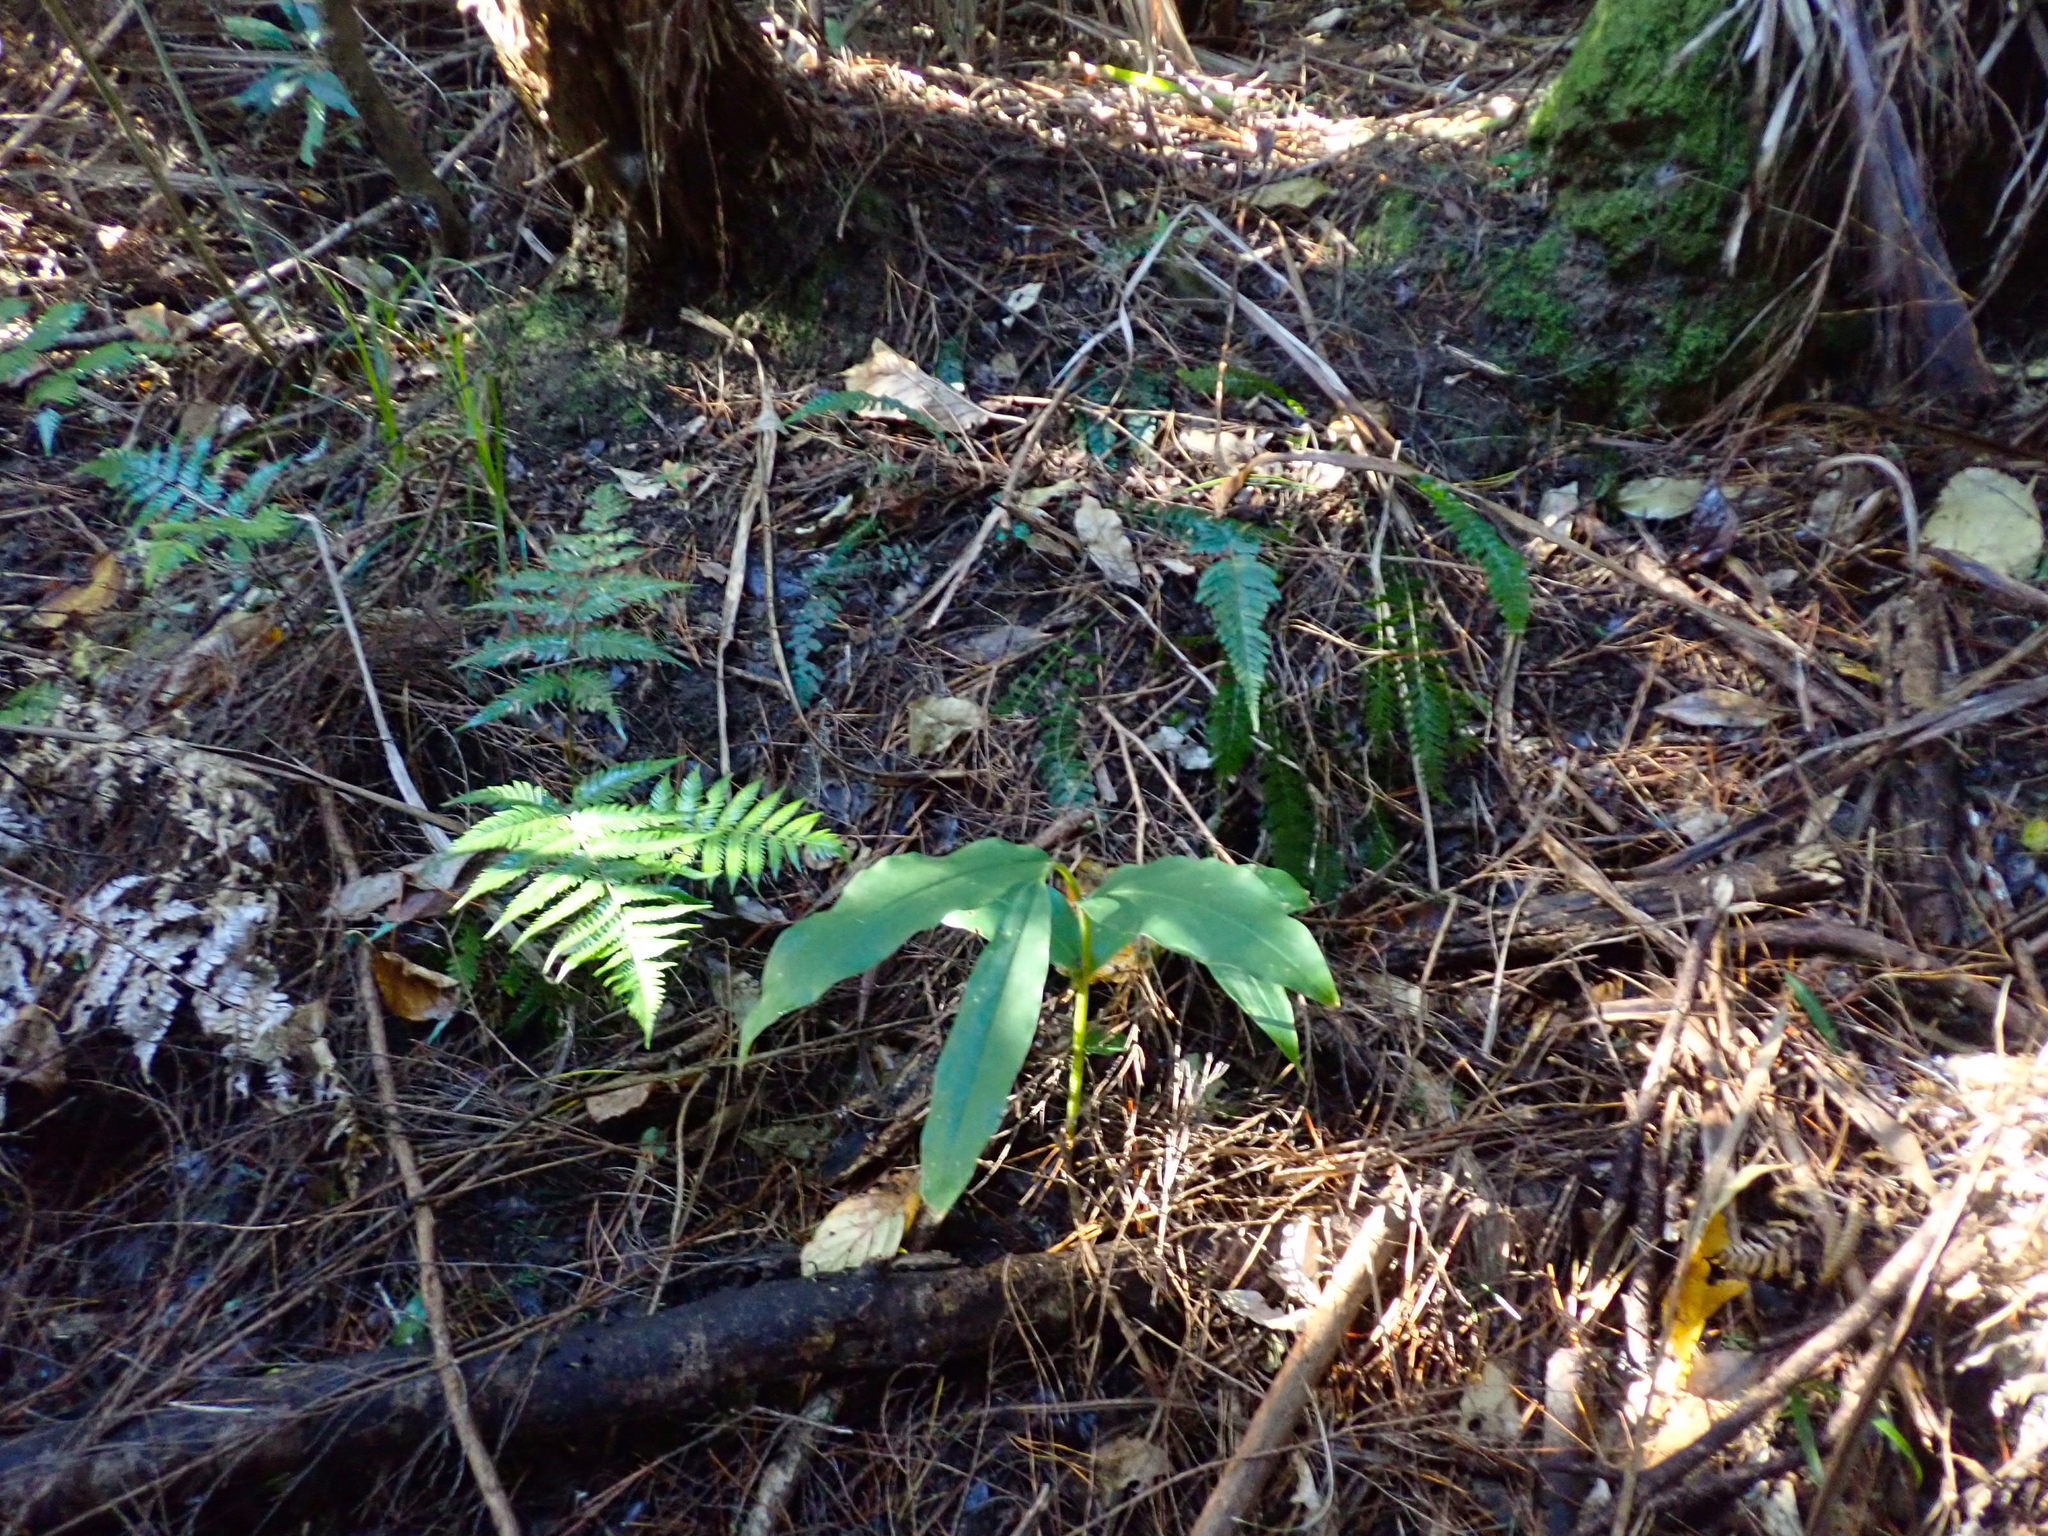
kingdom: Plantae
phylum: Tracheophyta
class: Liliopsida
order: Zingiberales
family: Zingiberaceae
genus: Hedychium
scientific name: Hedychium gardnerianum
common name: Himalayan ginger
